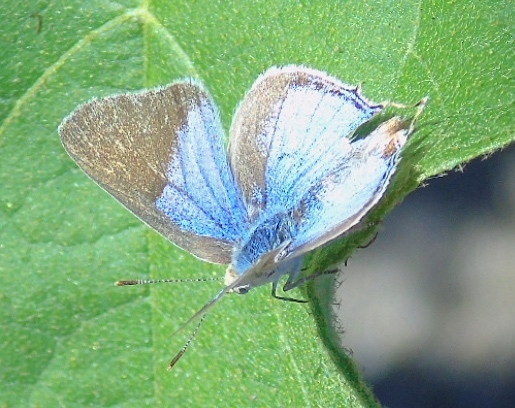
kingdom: Animalia
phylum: Arthropoda
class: Insecta
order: Lepidoptera
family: Lycaenidae
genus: Dolymorpha
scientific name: Dolymorpha jada
